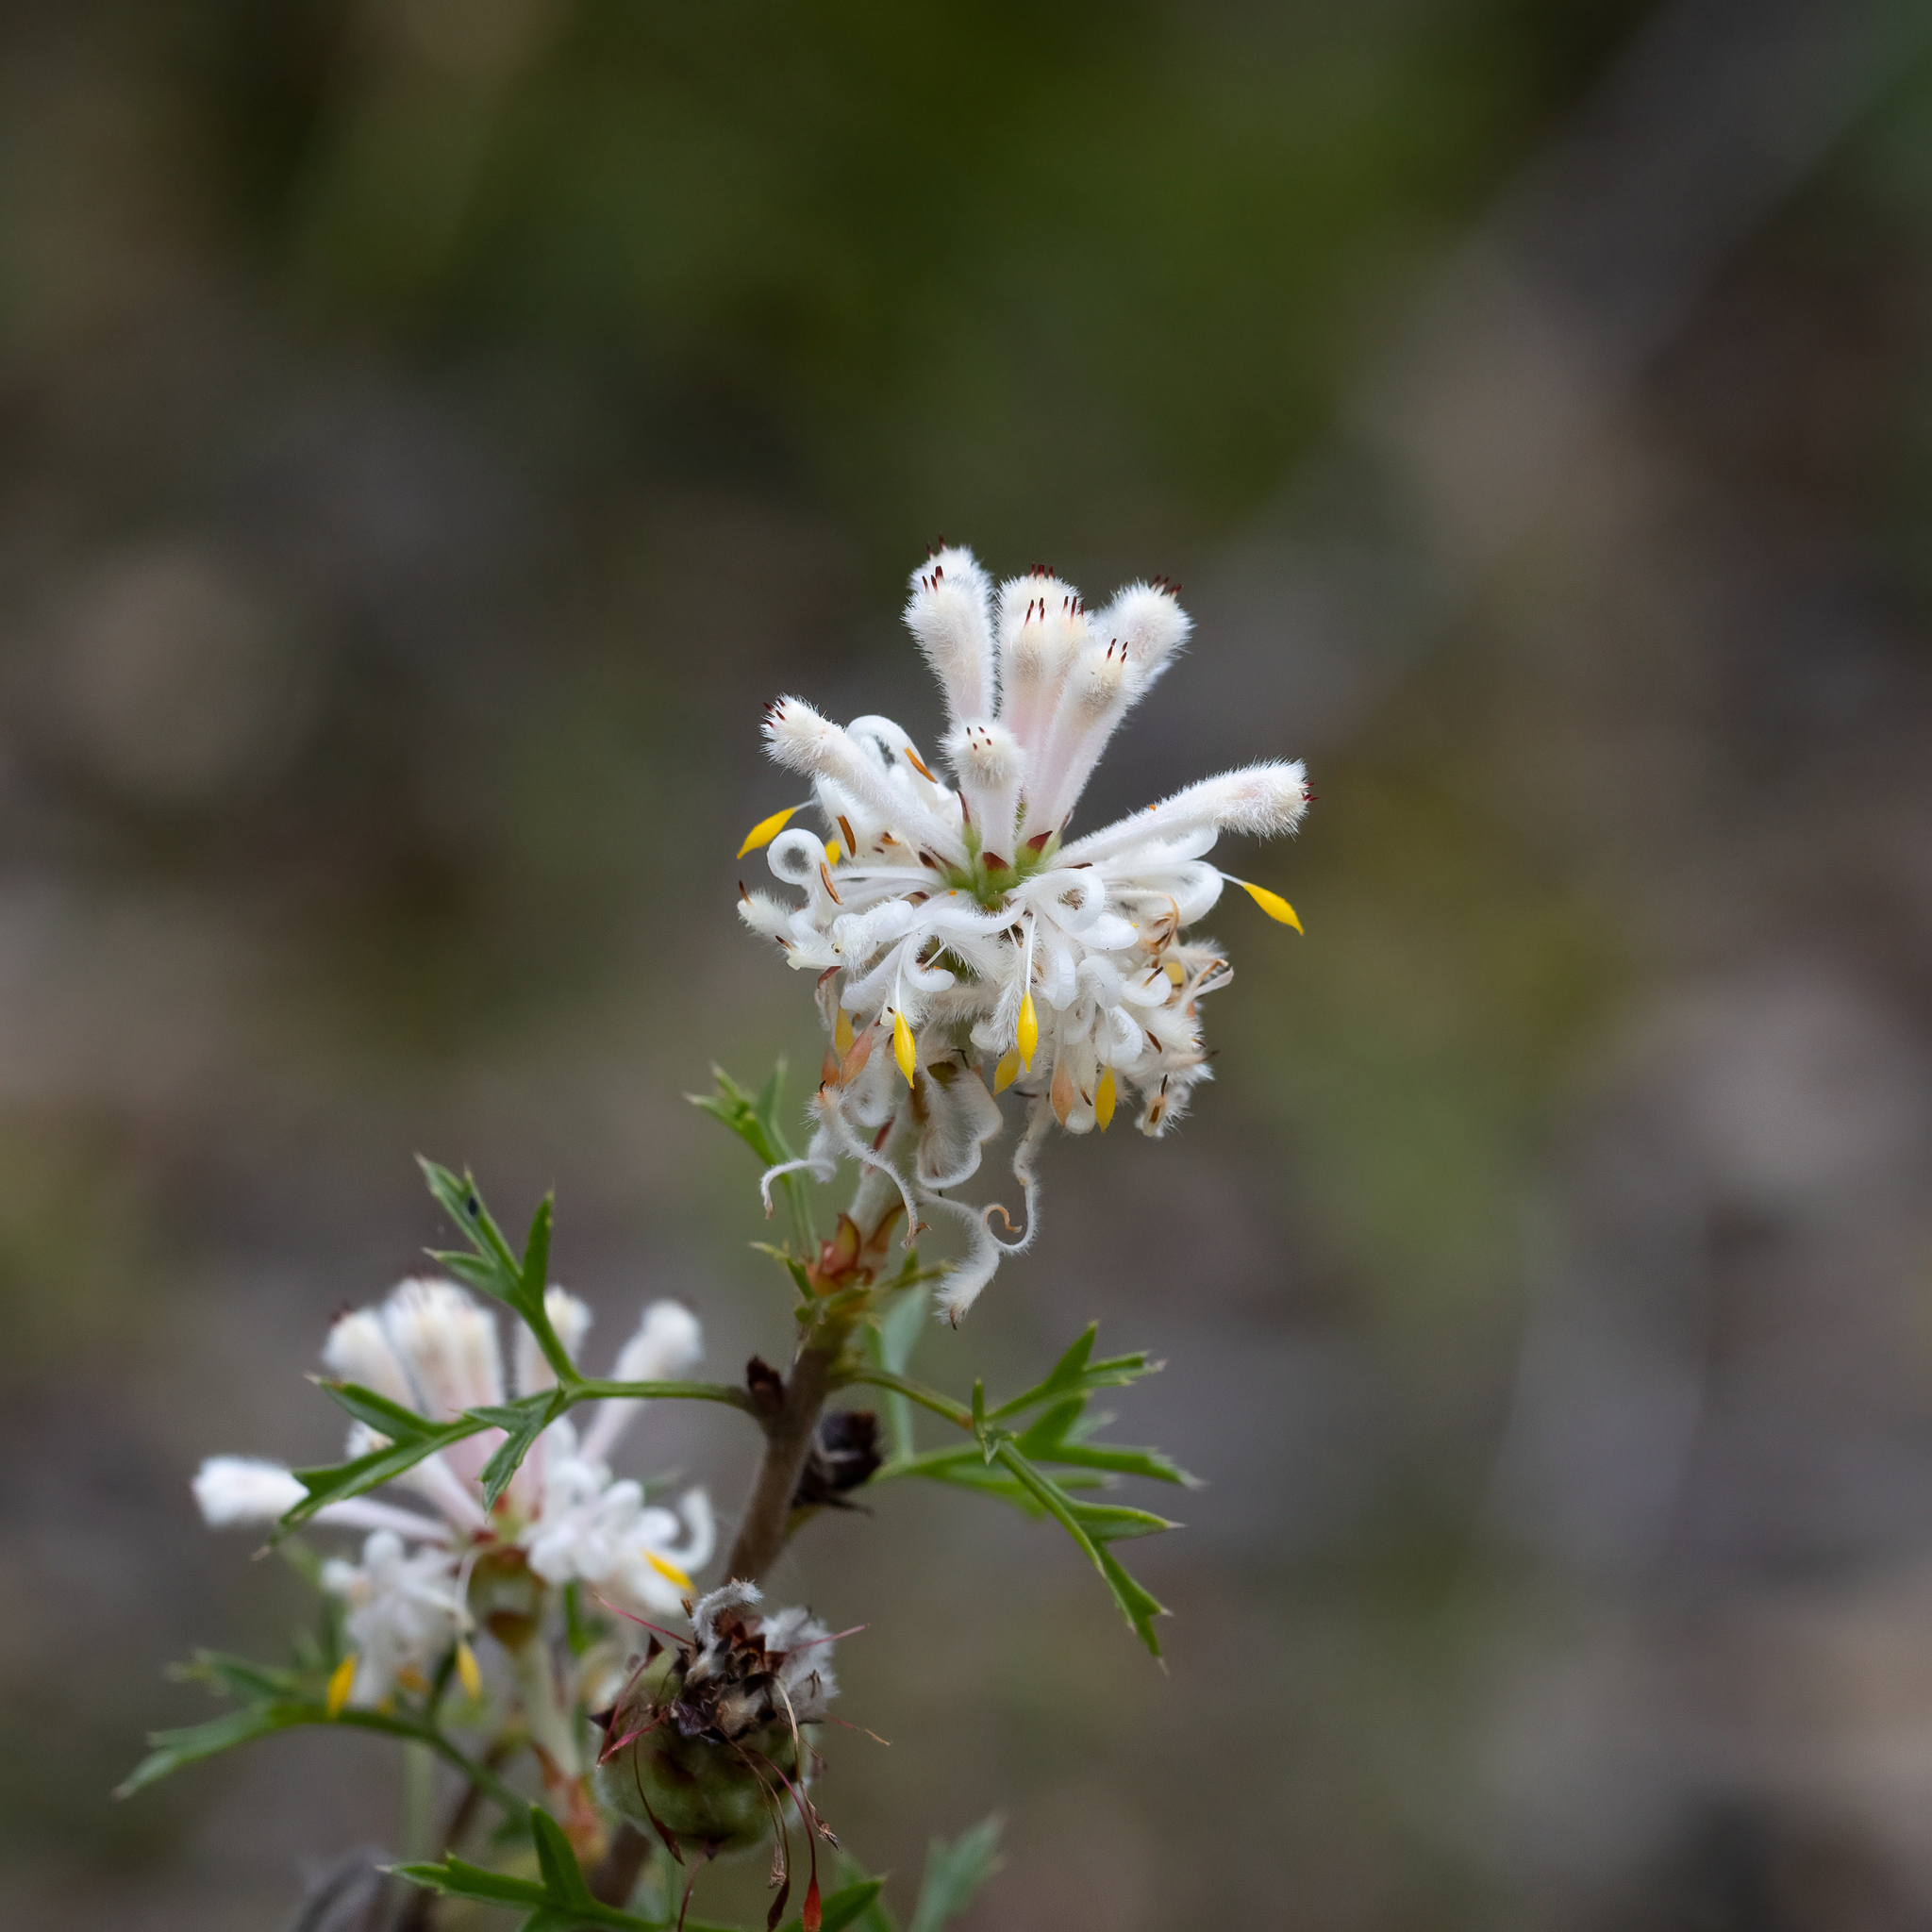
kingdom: Plantae
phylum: Tracheophyta
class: Magnoliopsida
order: Proteales
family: Proteaceae
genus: Petrophile
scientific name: Petrophile diversifolia
